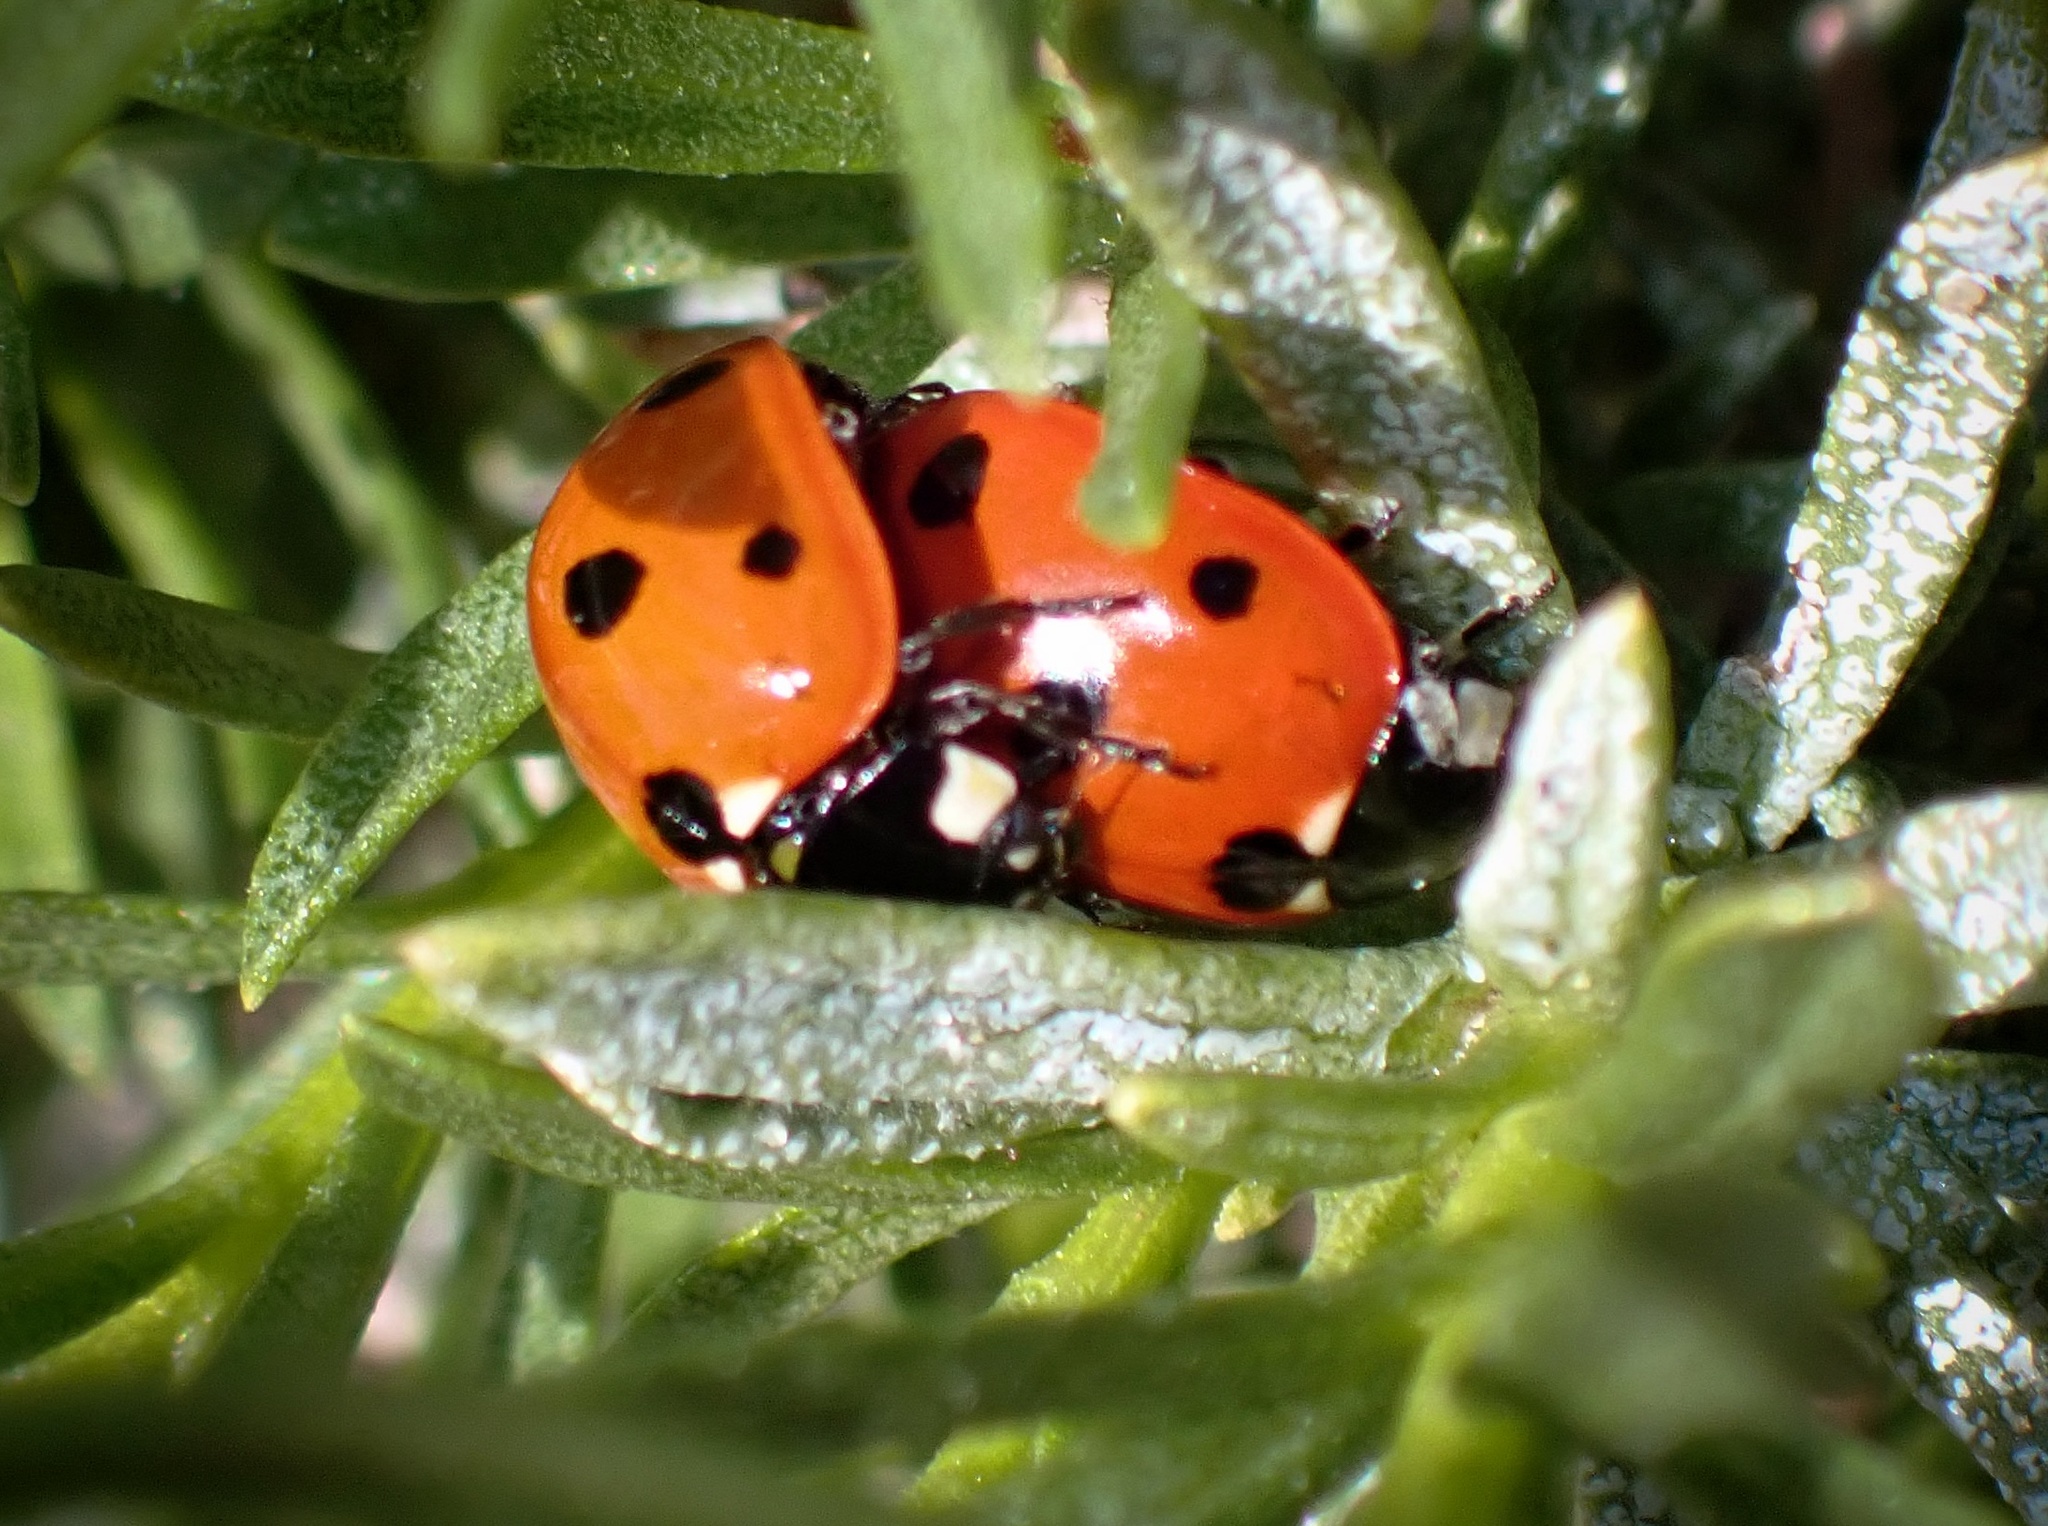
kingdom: Animalia
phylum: Arthropoda
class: Insecta
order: Coleoptera
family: Coccinellidae
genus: Coccinella
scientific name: Coccinella septempunctata
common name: Sevenspotted lady beetle
